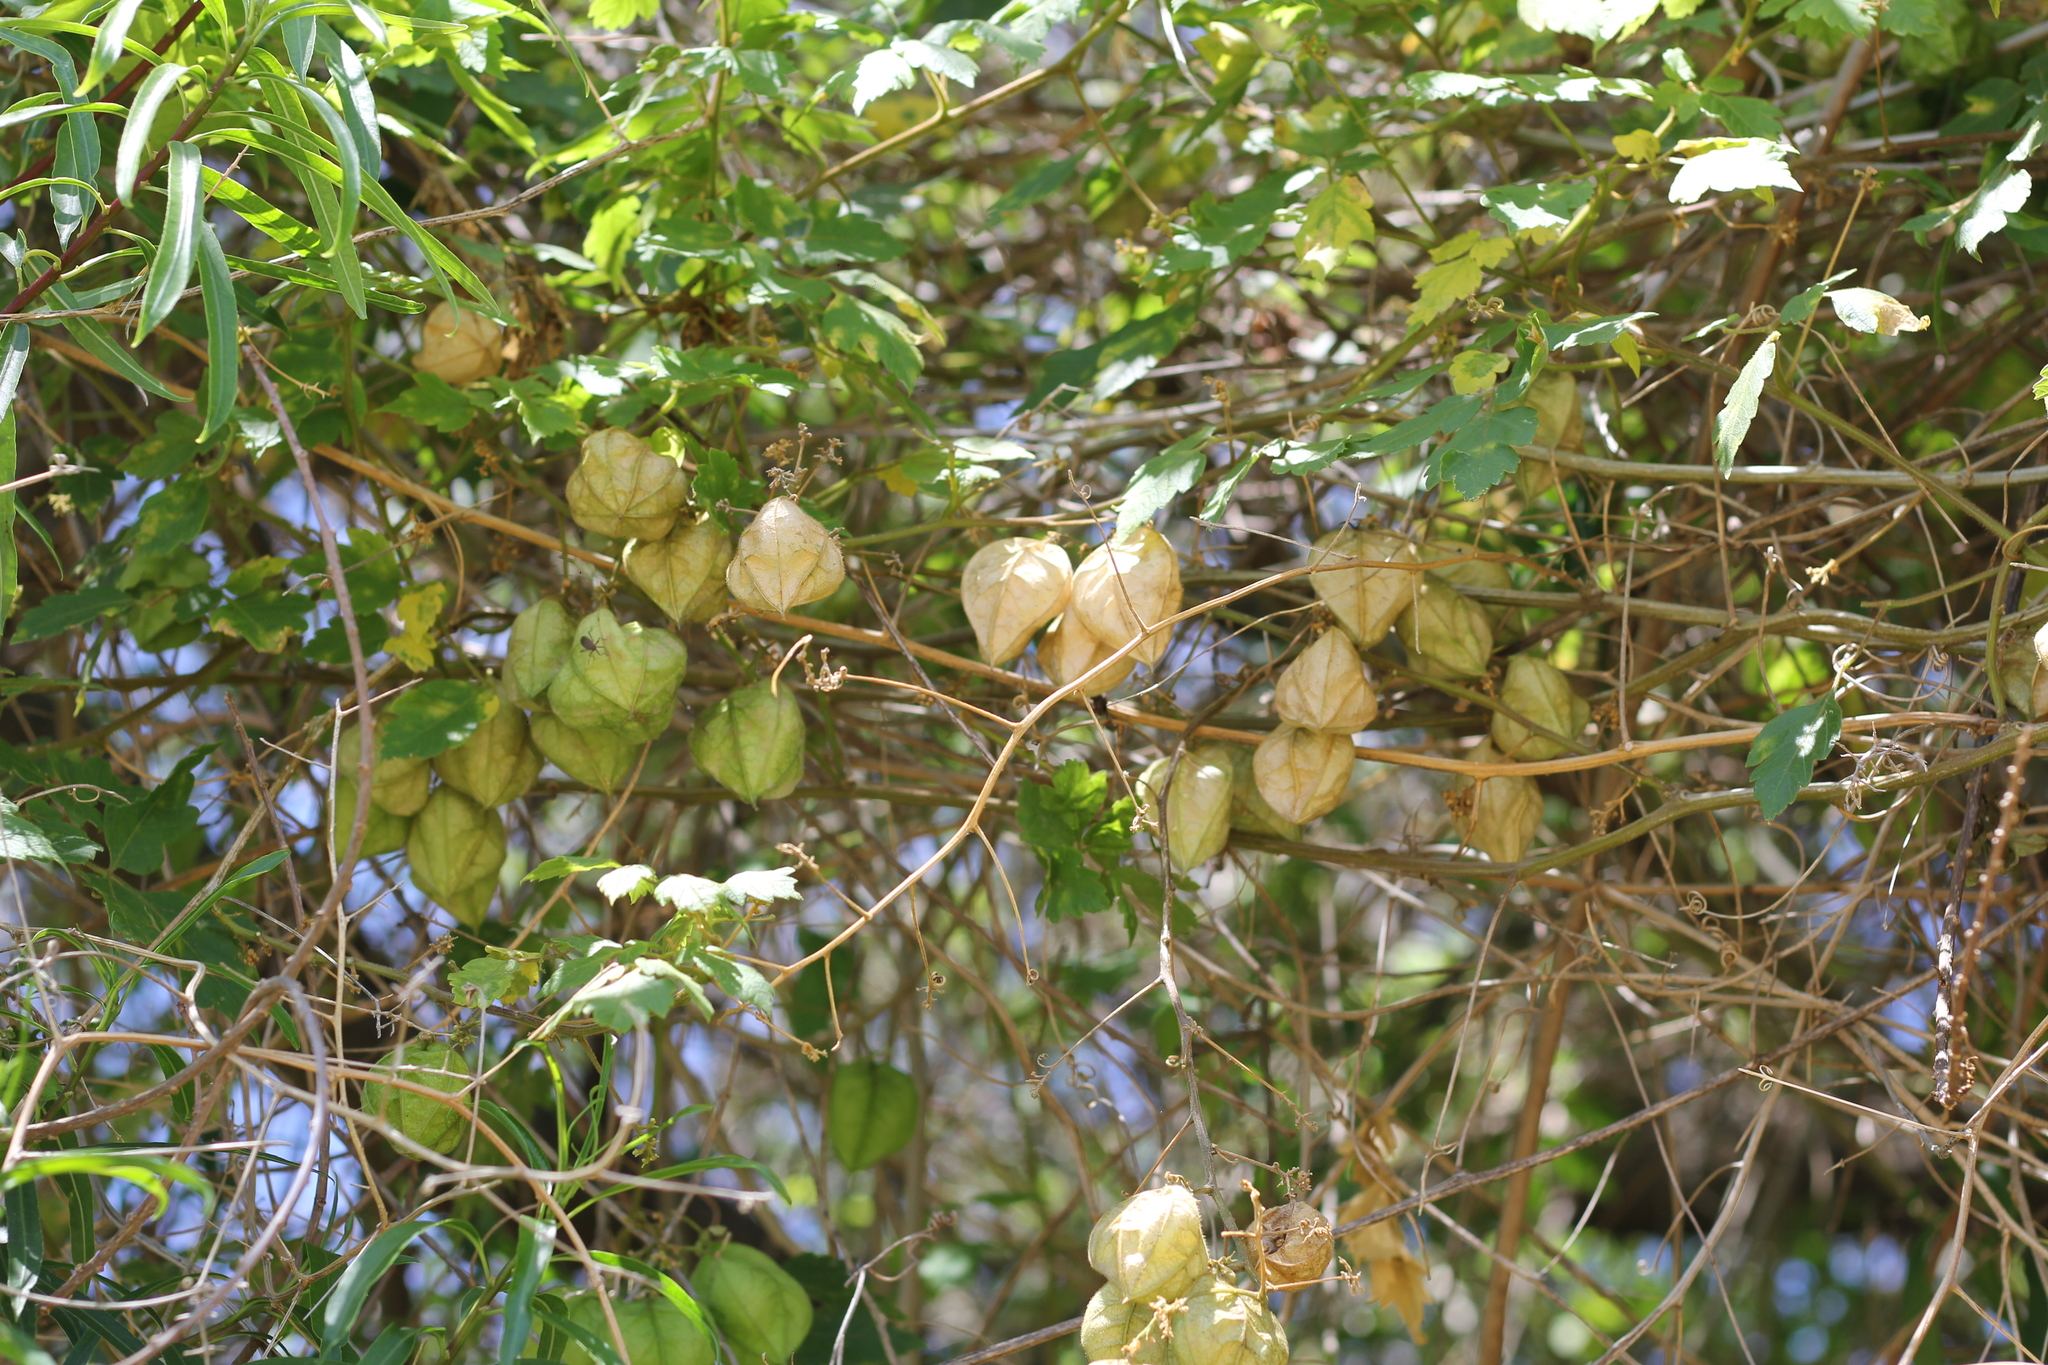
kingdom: Plantae
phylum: Tracheophyta
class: Magnoliopsida
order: Sapindales
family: Sapindaceae
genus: Cardiospermum
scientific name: Cardiospermum grandiflorum
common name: Balloon vine
